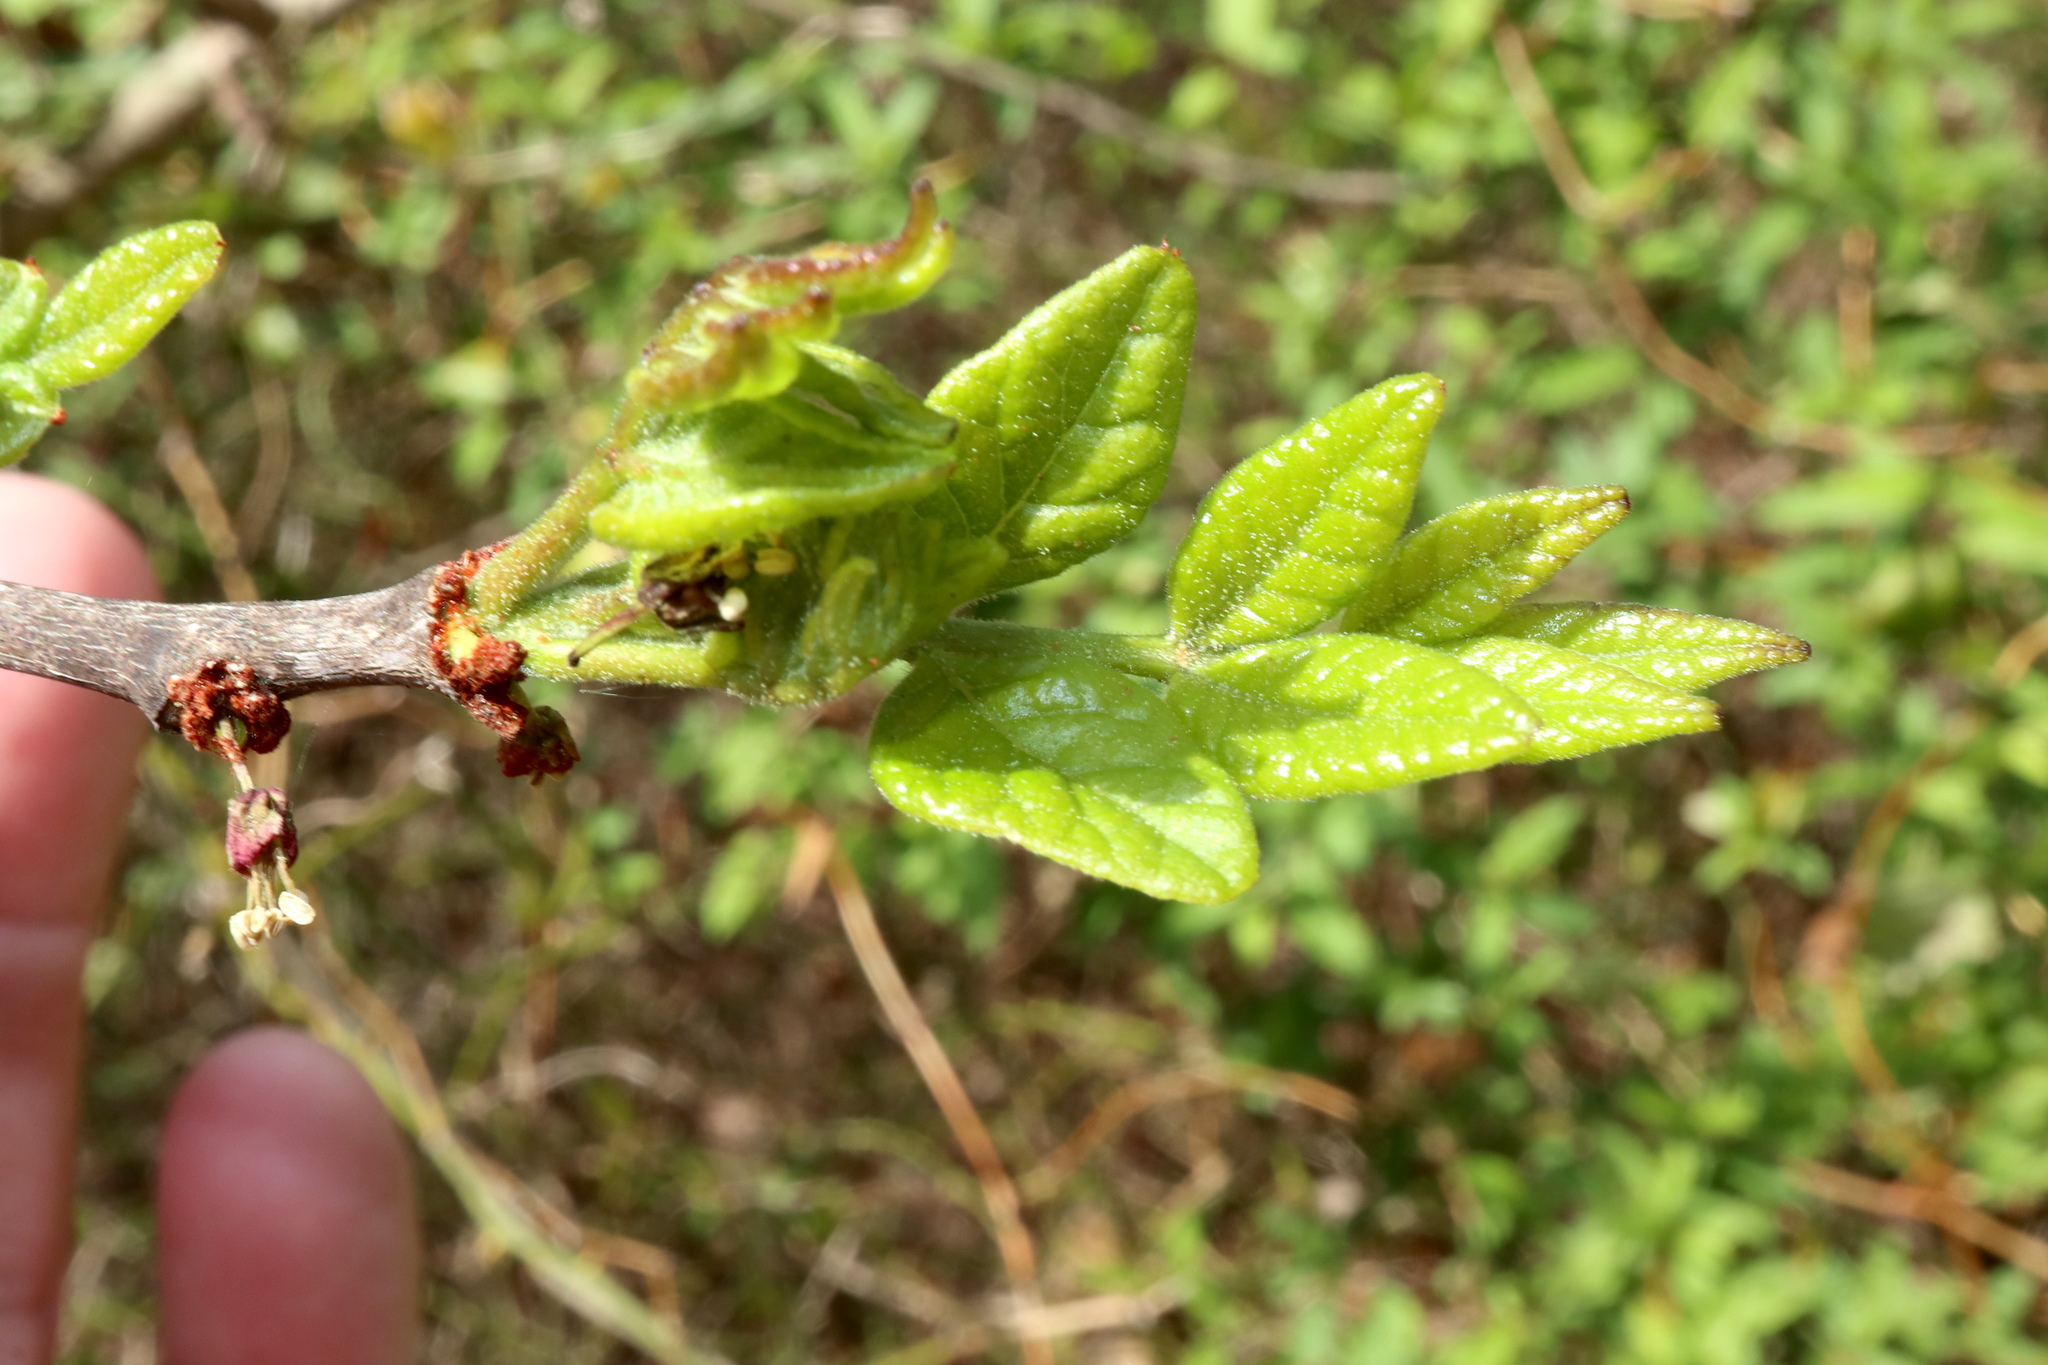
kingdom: Plantae
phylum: Tracheophyta
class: Magnoliopsida
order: Sapindales
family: Rutaceae
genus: Zanthoxylum
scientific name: Zanthoxylum americanum
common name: Northern prickly-ash
